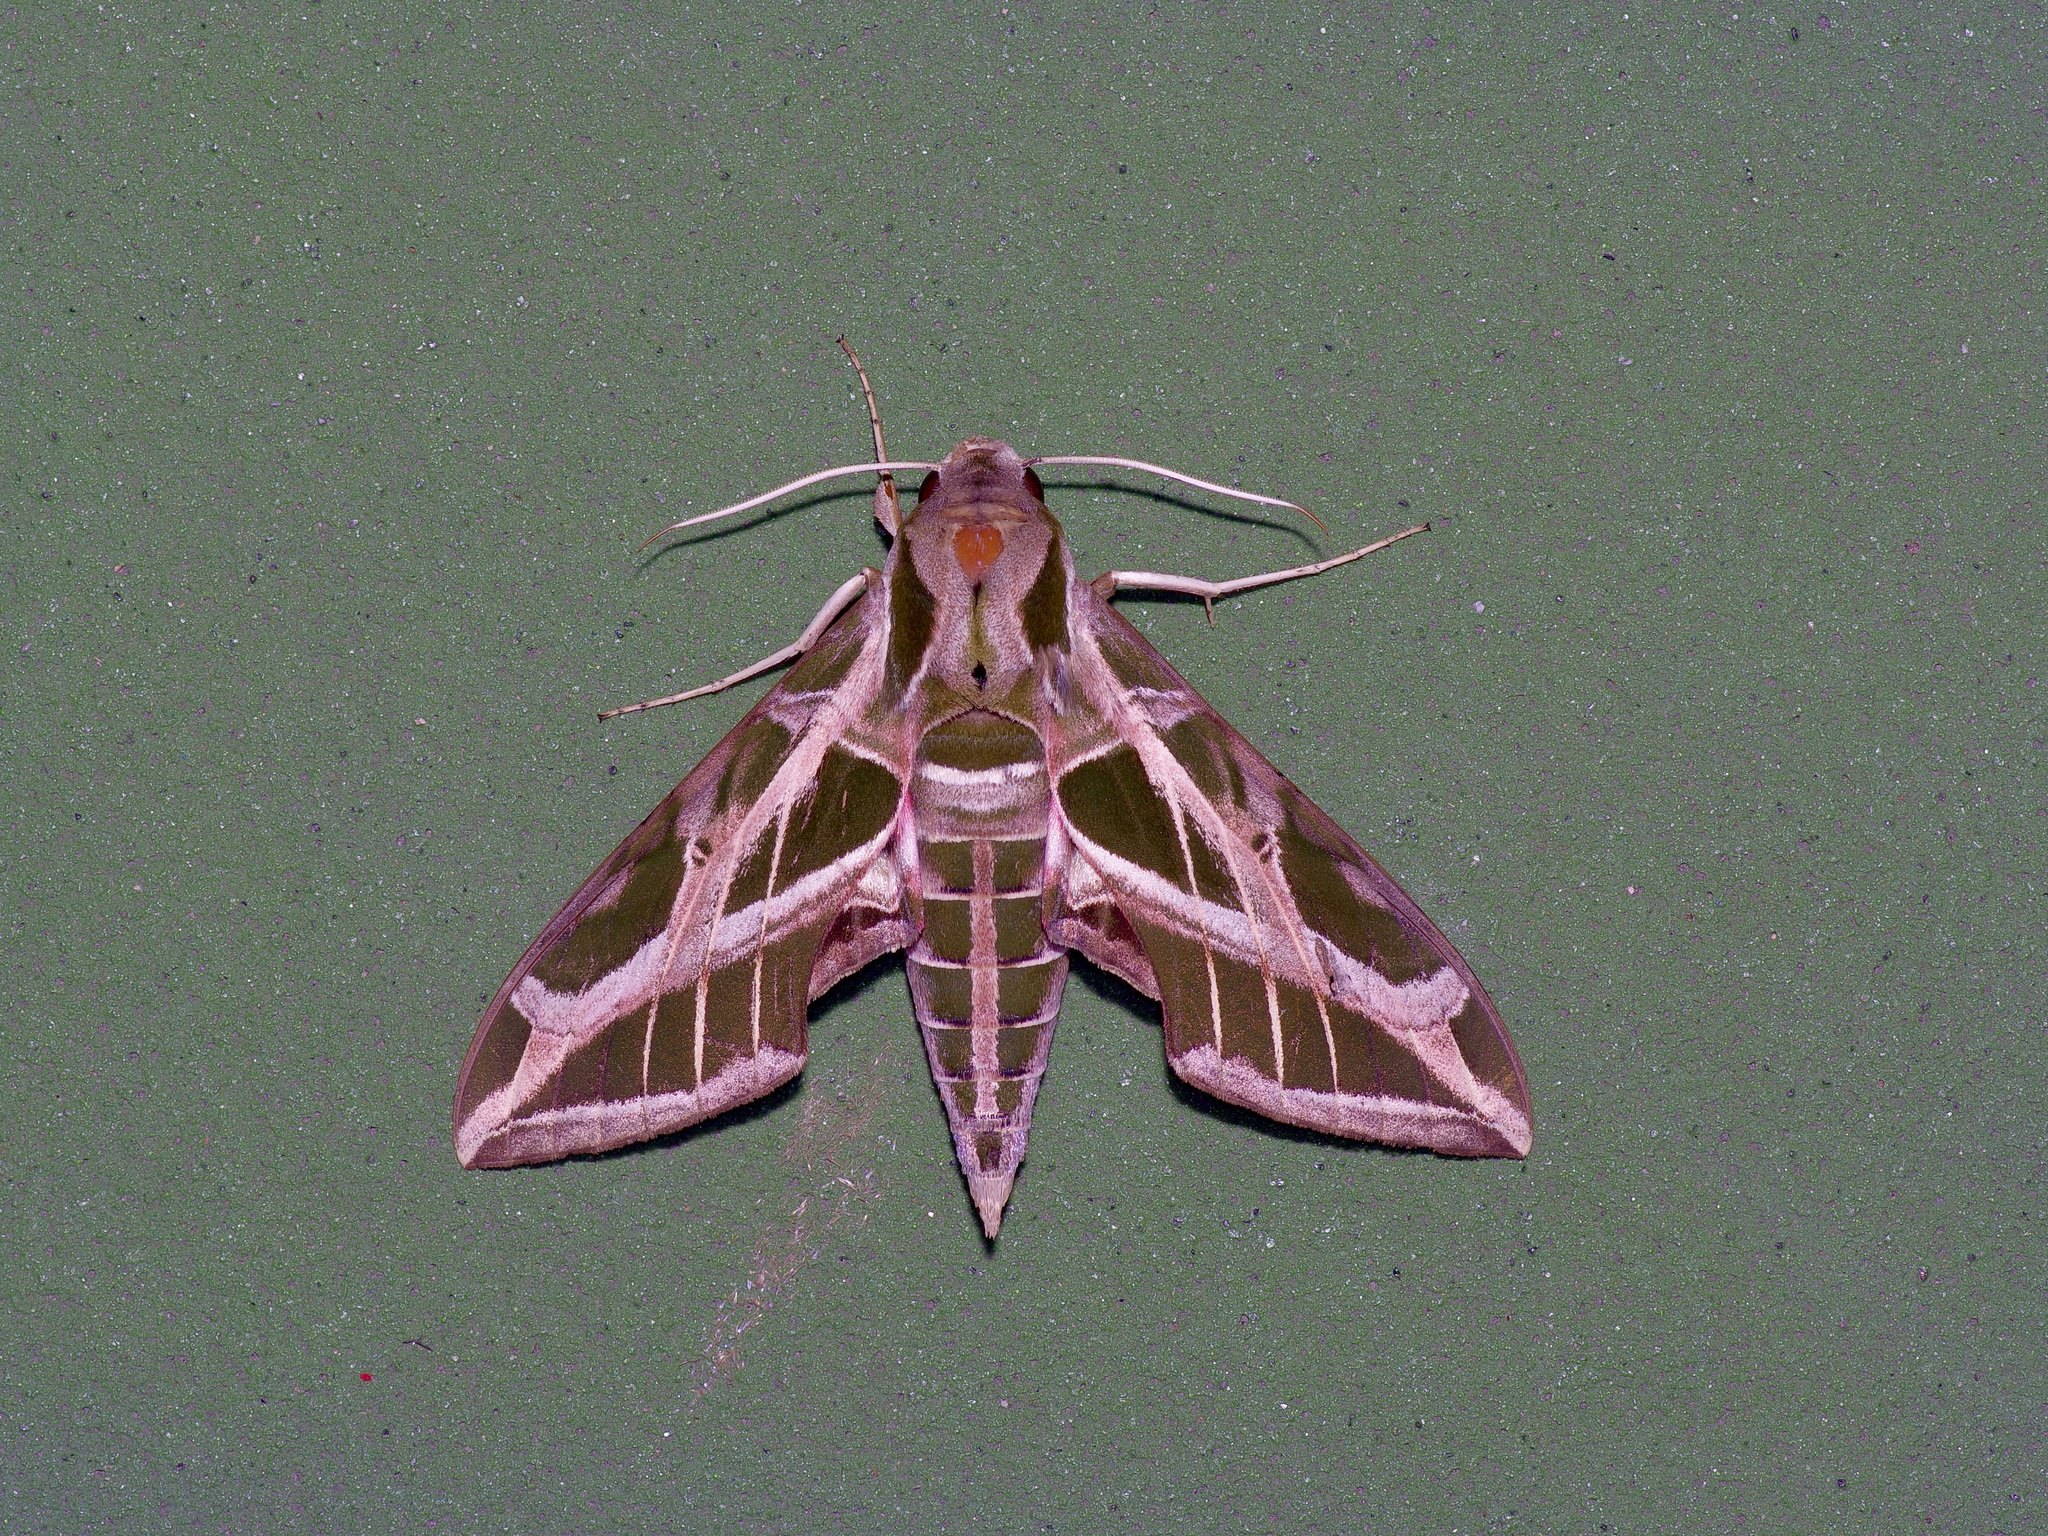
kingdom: Animalia
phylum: Arthropoda
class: Insecta
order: Lepidoptera
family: Sphingidae
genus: Eumorpha
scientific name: Eumorpha vitis
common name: Vine sphinx
